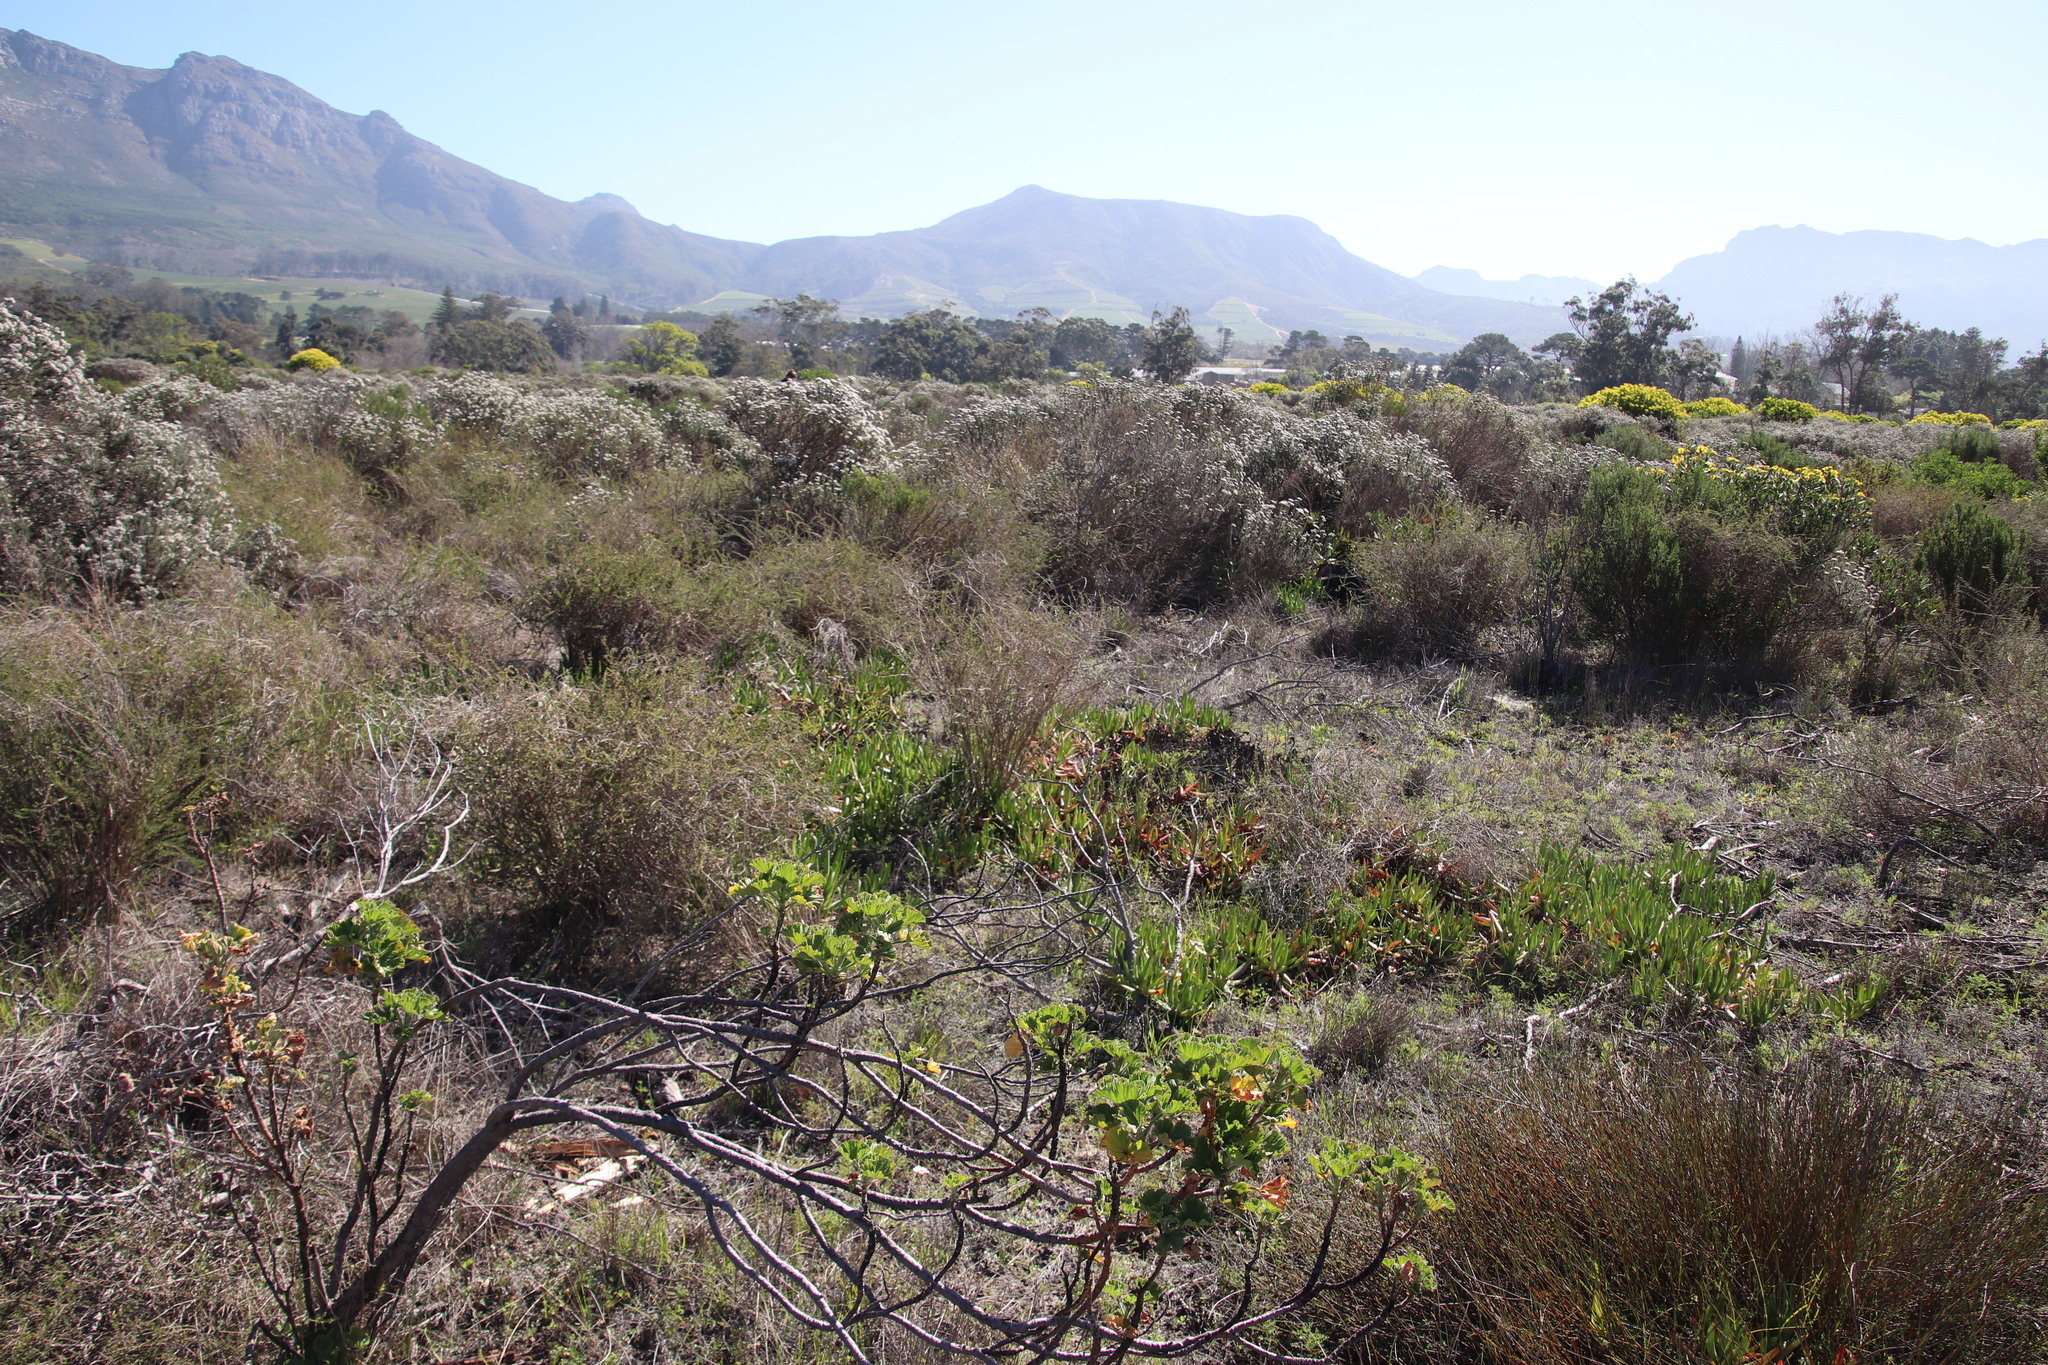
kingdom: Plantae
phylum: Tracheophyta
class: Magnoliopsida
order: Fabales
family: Fabaceae
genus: Aspalathus
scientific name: Aspalathus spinosa
